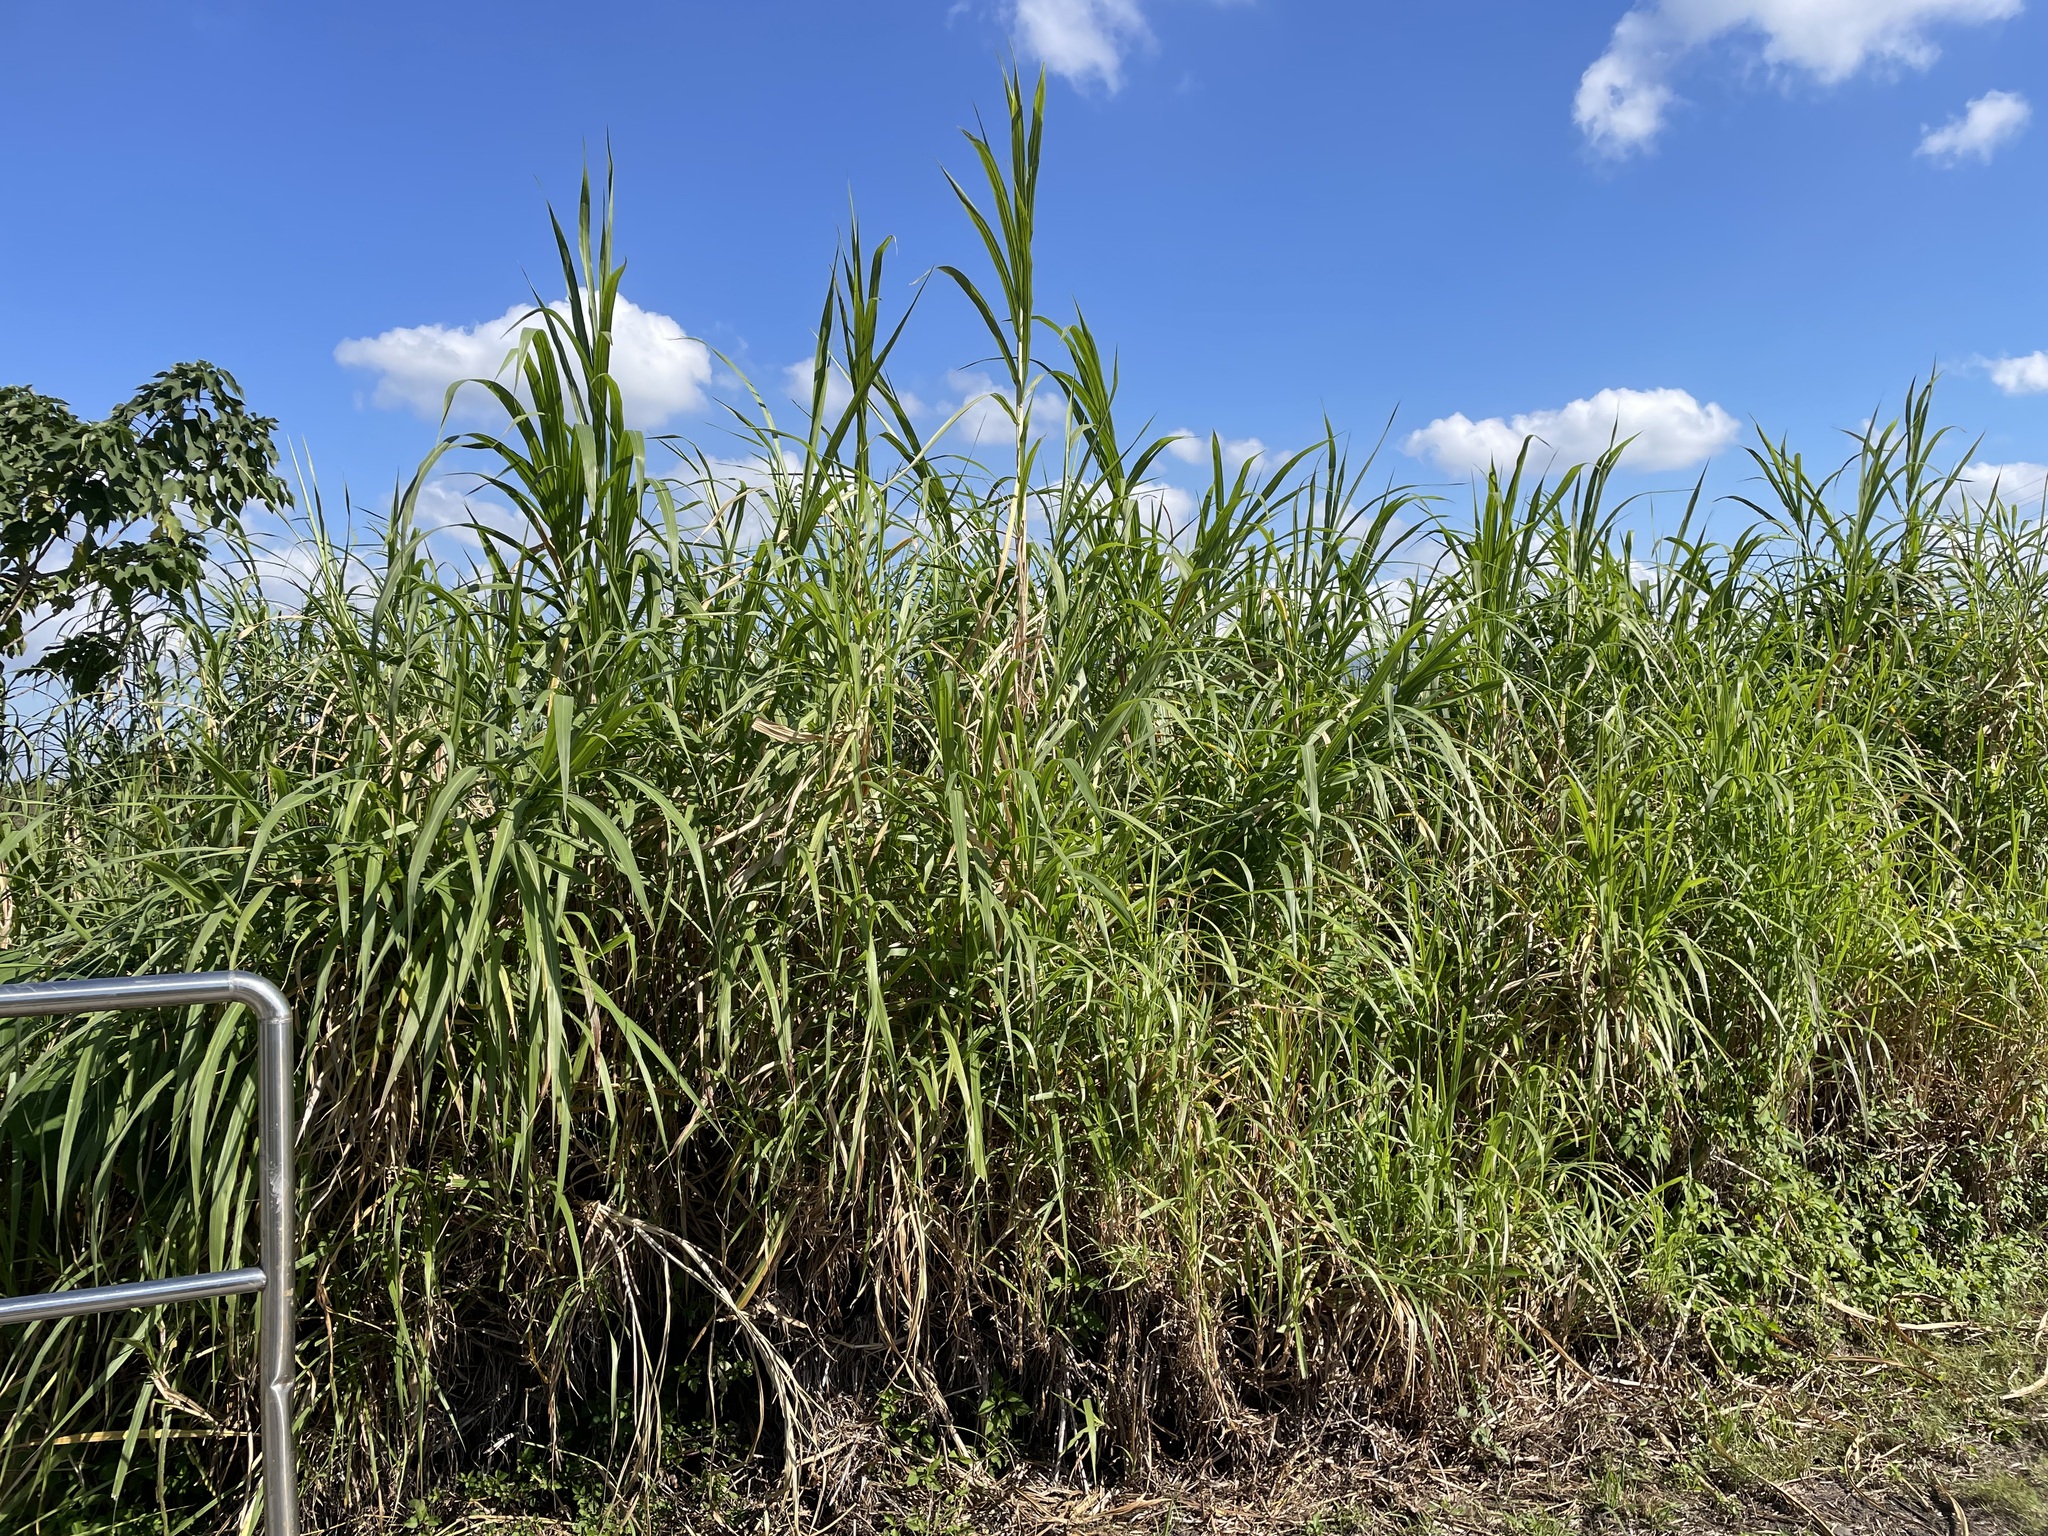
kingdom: Plantae
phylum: Tracheophyta
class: Liliopsida
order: Poales
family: Poaceae
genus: Cenchrus
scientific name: Cenchrus purpureus
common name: Elephant grass
